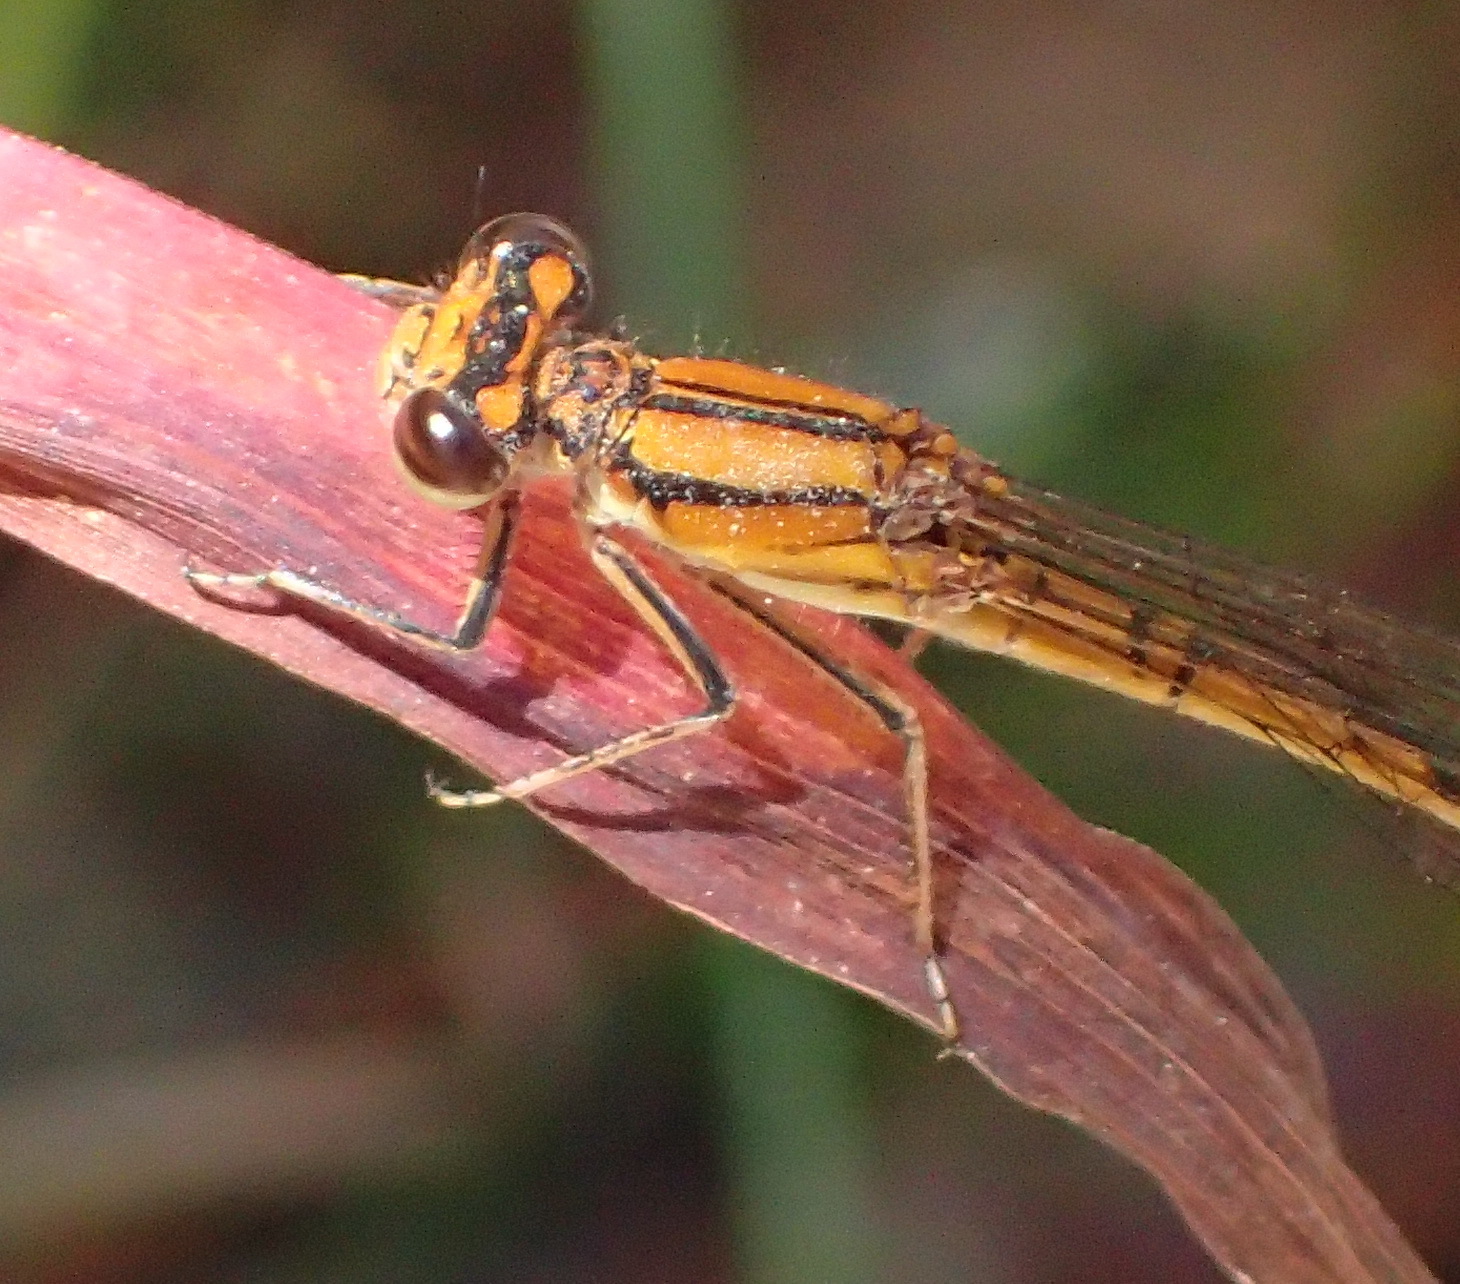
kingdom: Animalia
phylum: Arthropoda
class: Insecta
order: Odonata
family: Coenagrionidae
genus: Pseudagrion
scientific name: Pseudagrion furcigerum
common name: Palmiet sprite
